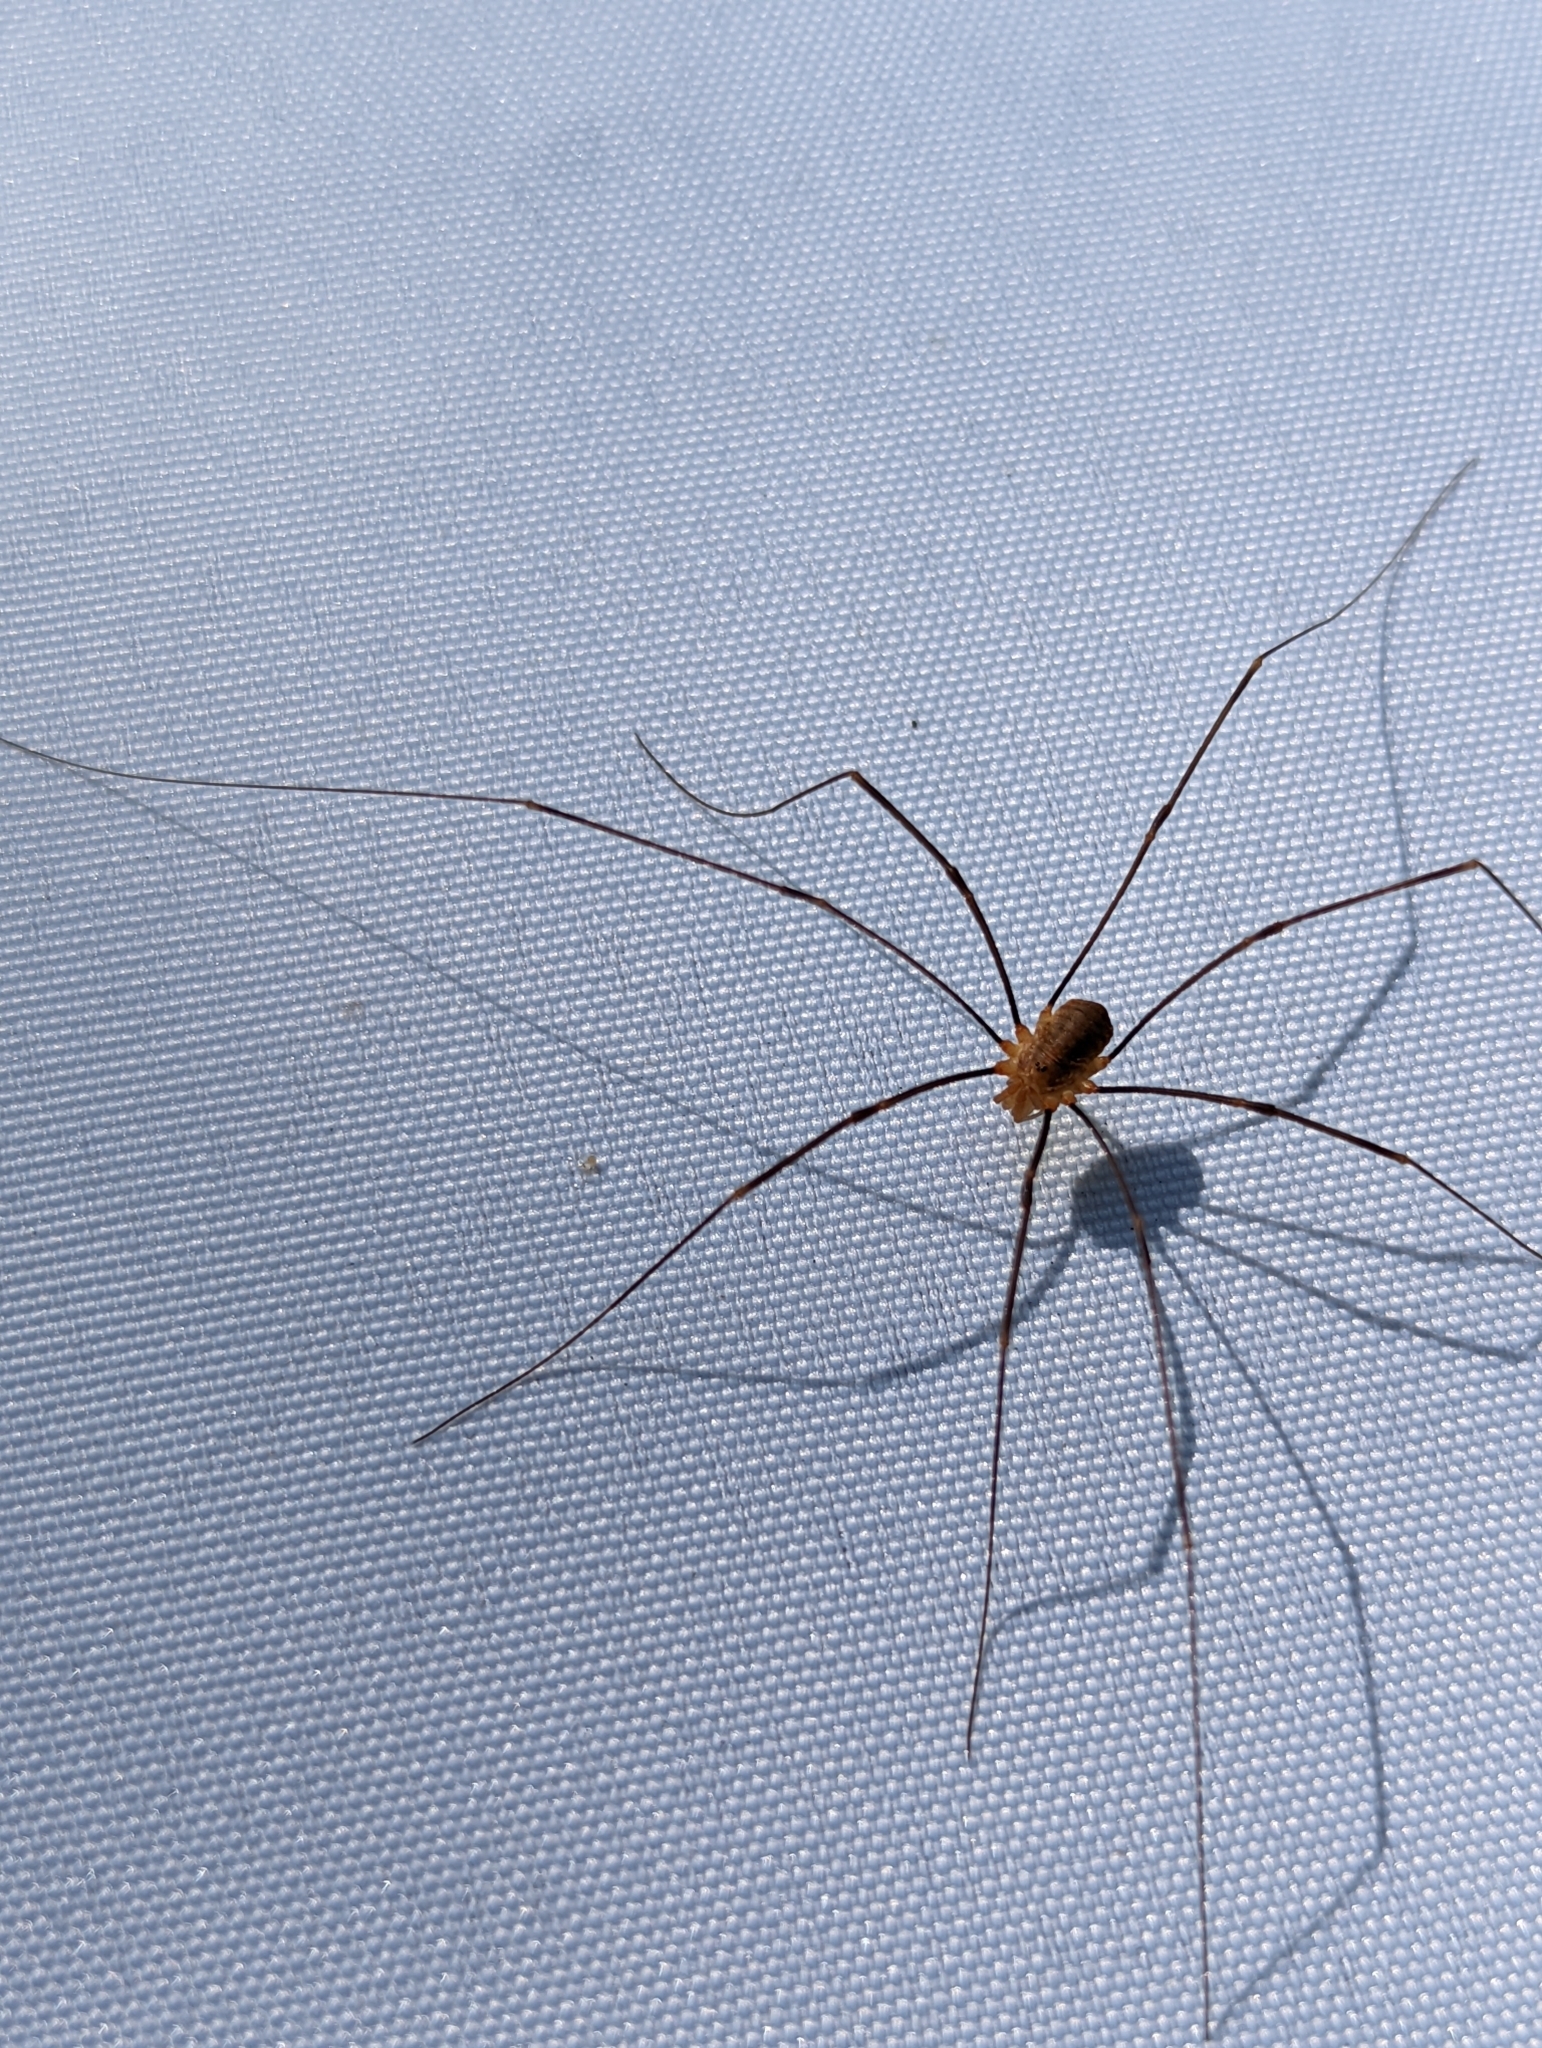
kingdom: Animalia
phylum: Arthropoda
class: Arachnida
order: Opiliones
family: Phalangiidae
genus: Opilio
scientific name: Opilio canestrinii
